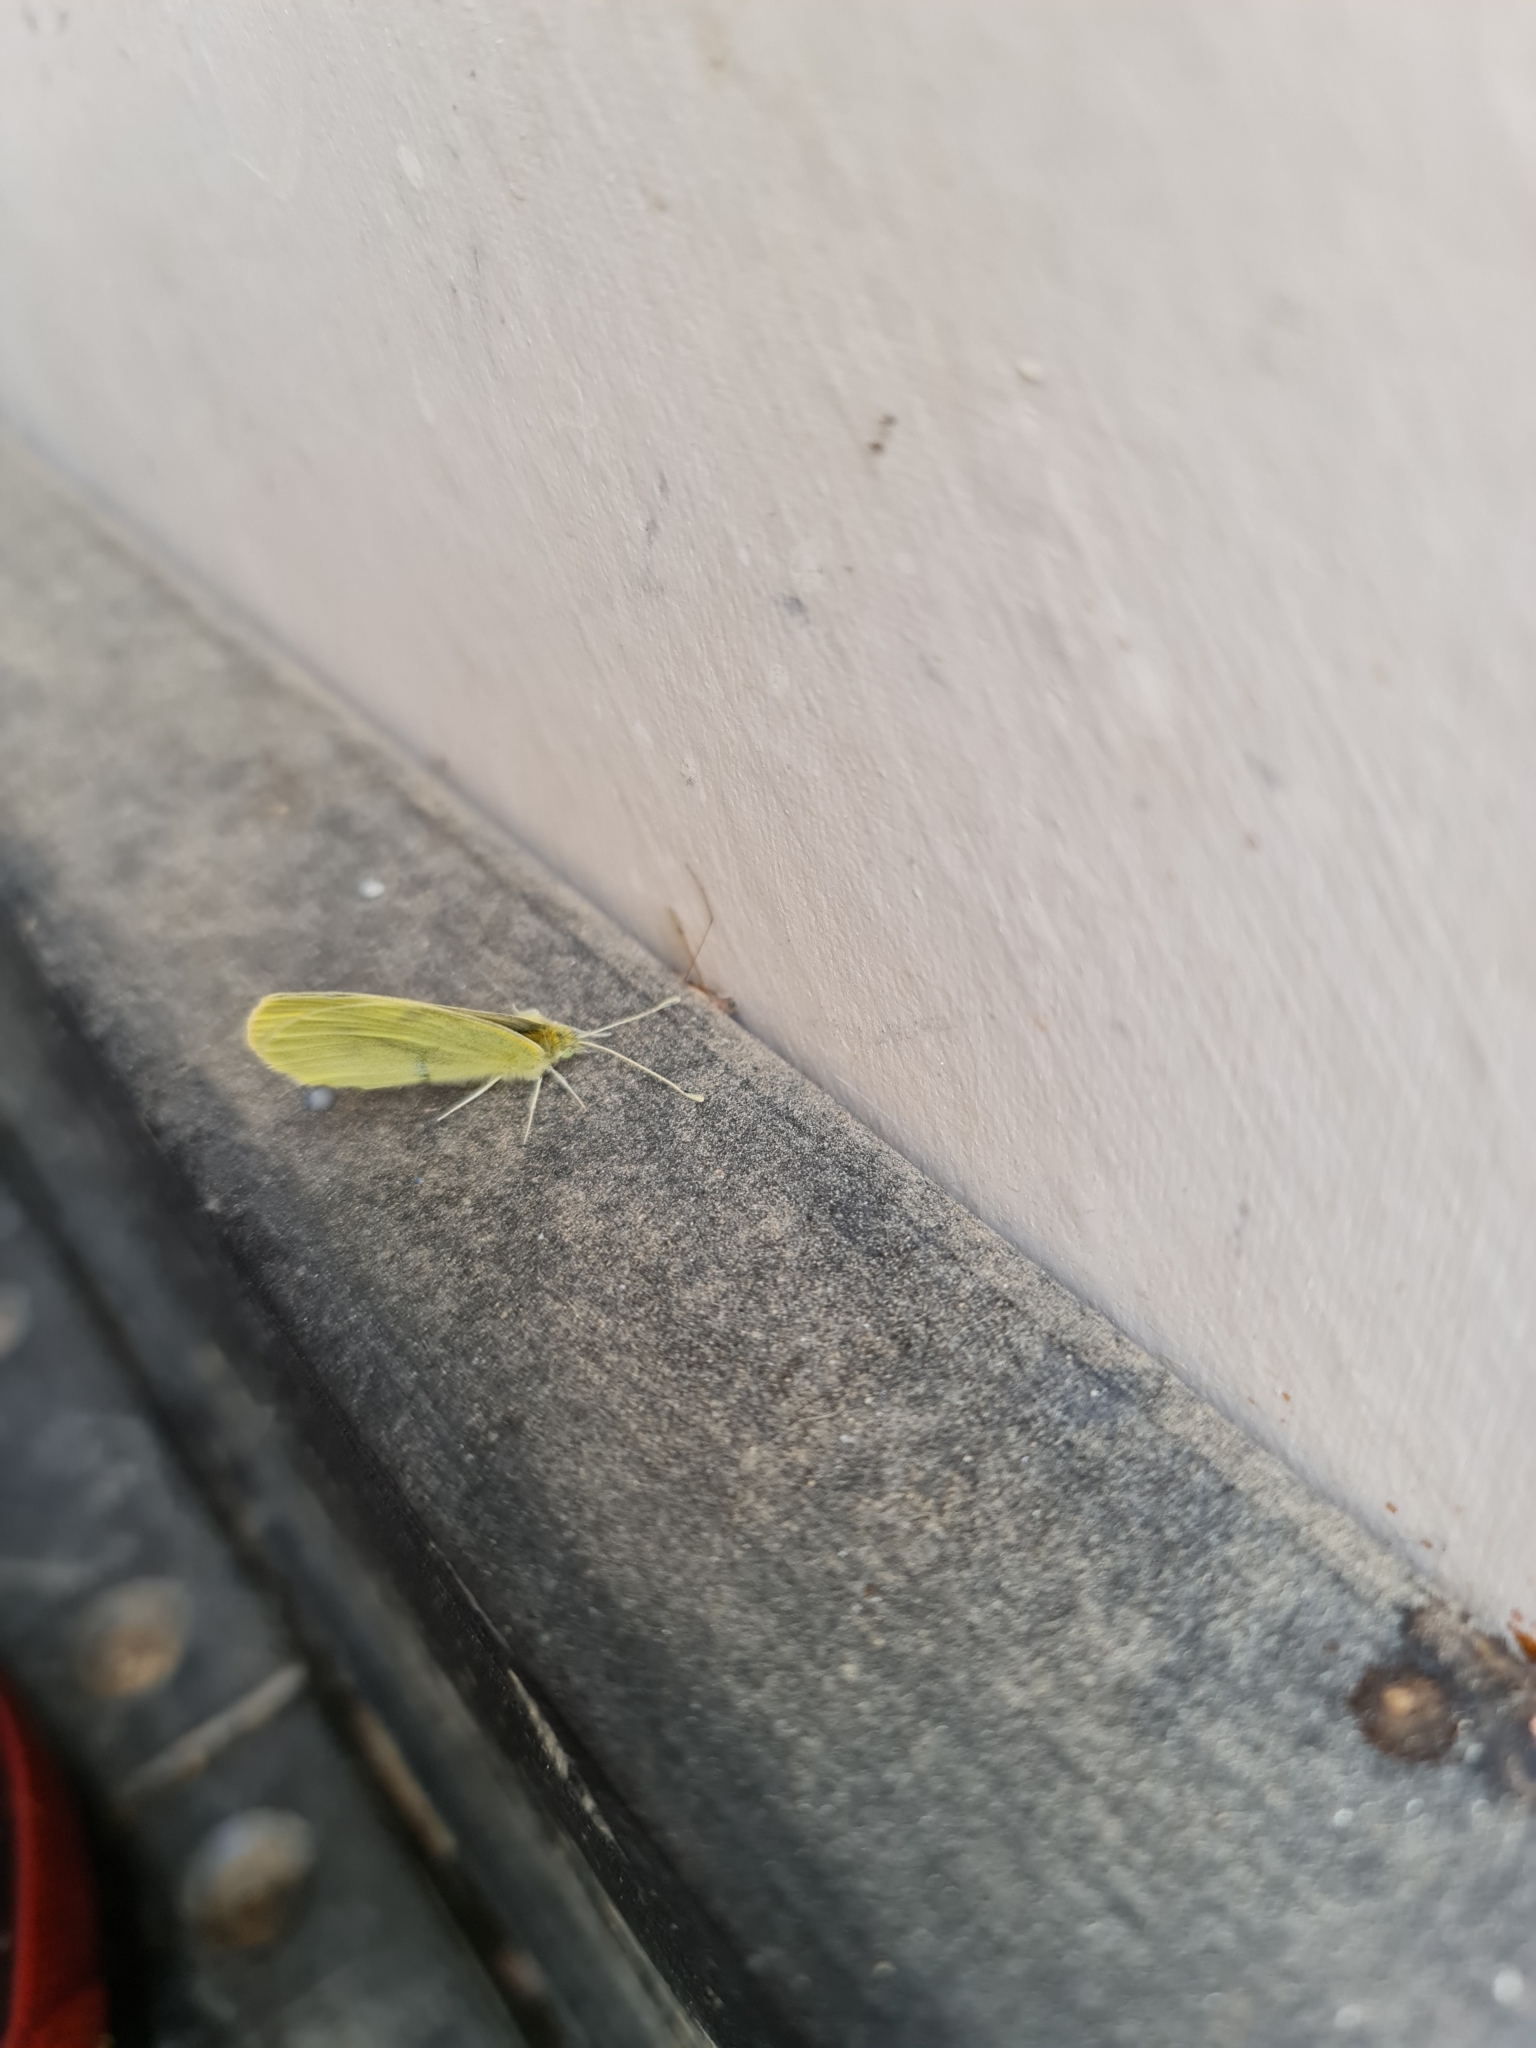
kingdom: Animalia
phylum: Arthropoda
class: Insecta
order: Lepidoptera
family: Pieridae
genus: Pieris
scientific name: Pieris rapae
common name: Small white
